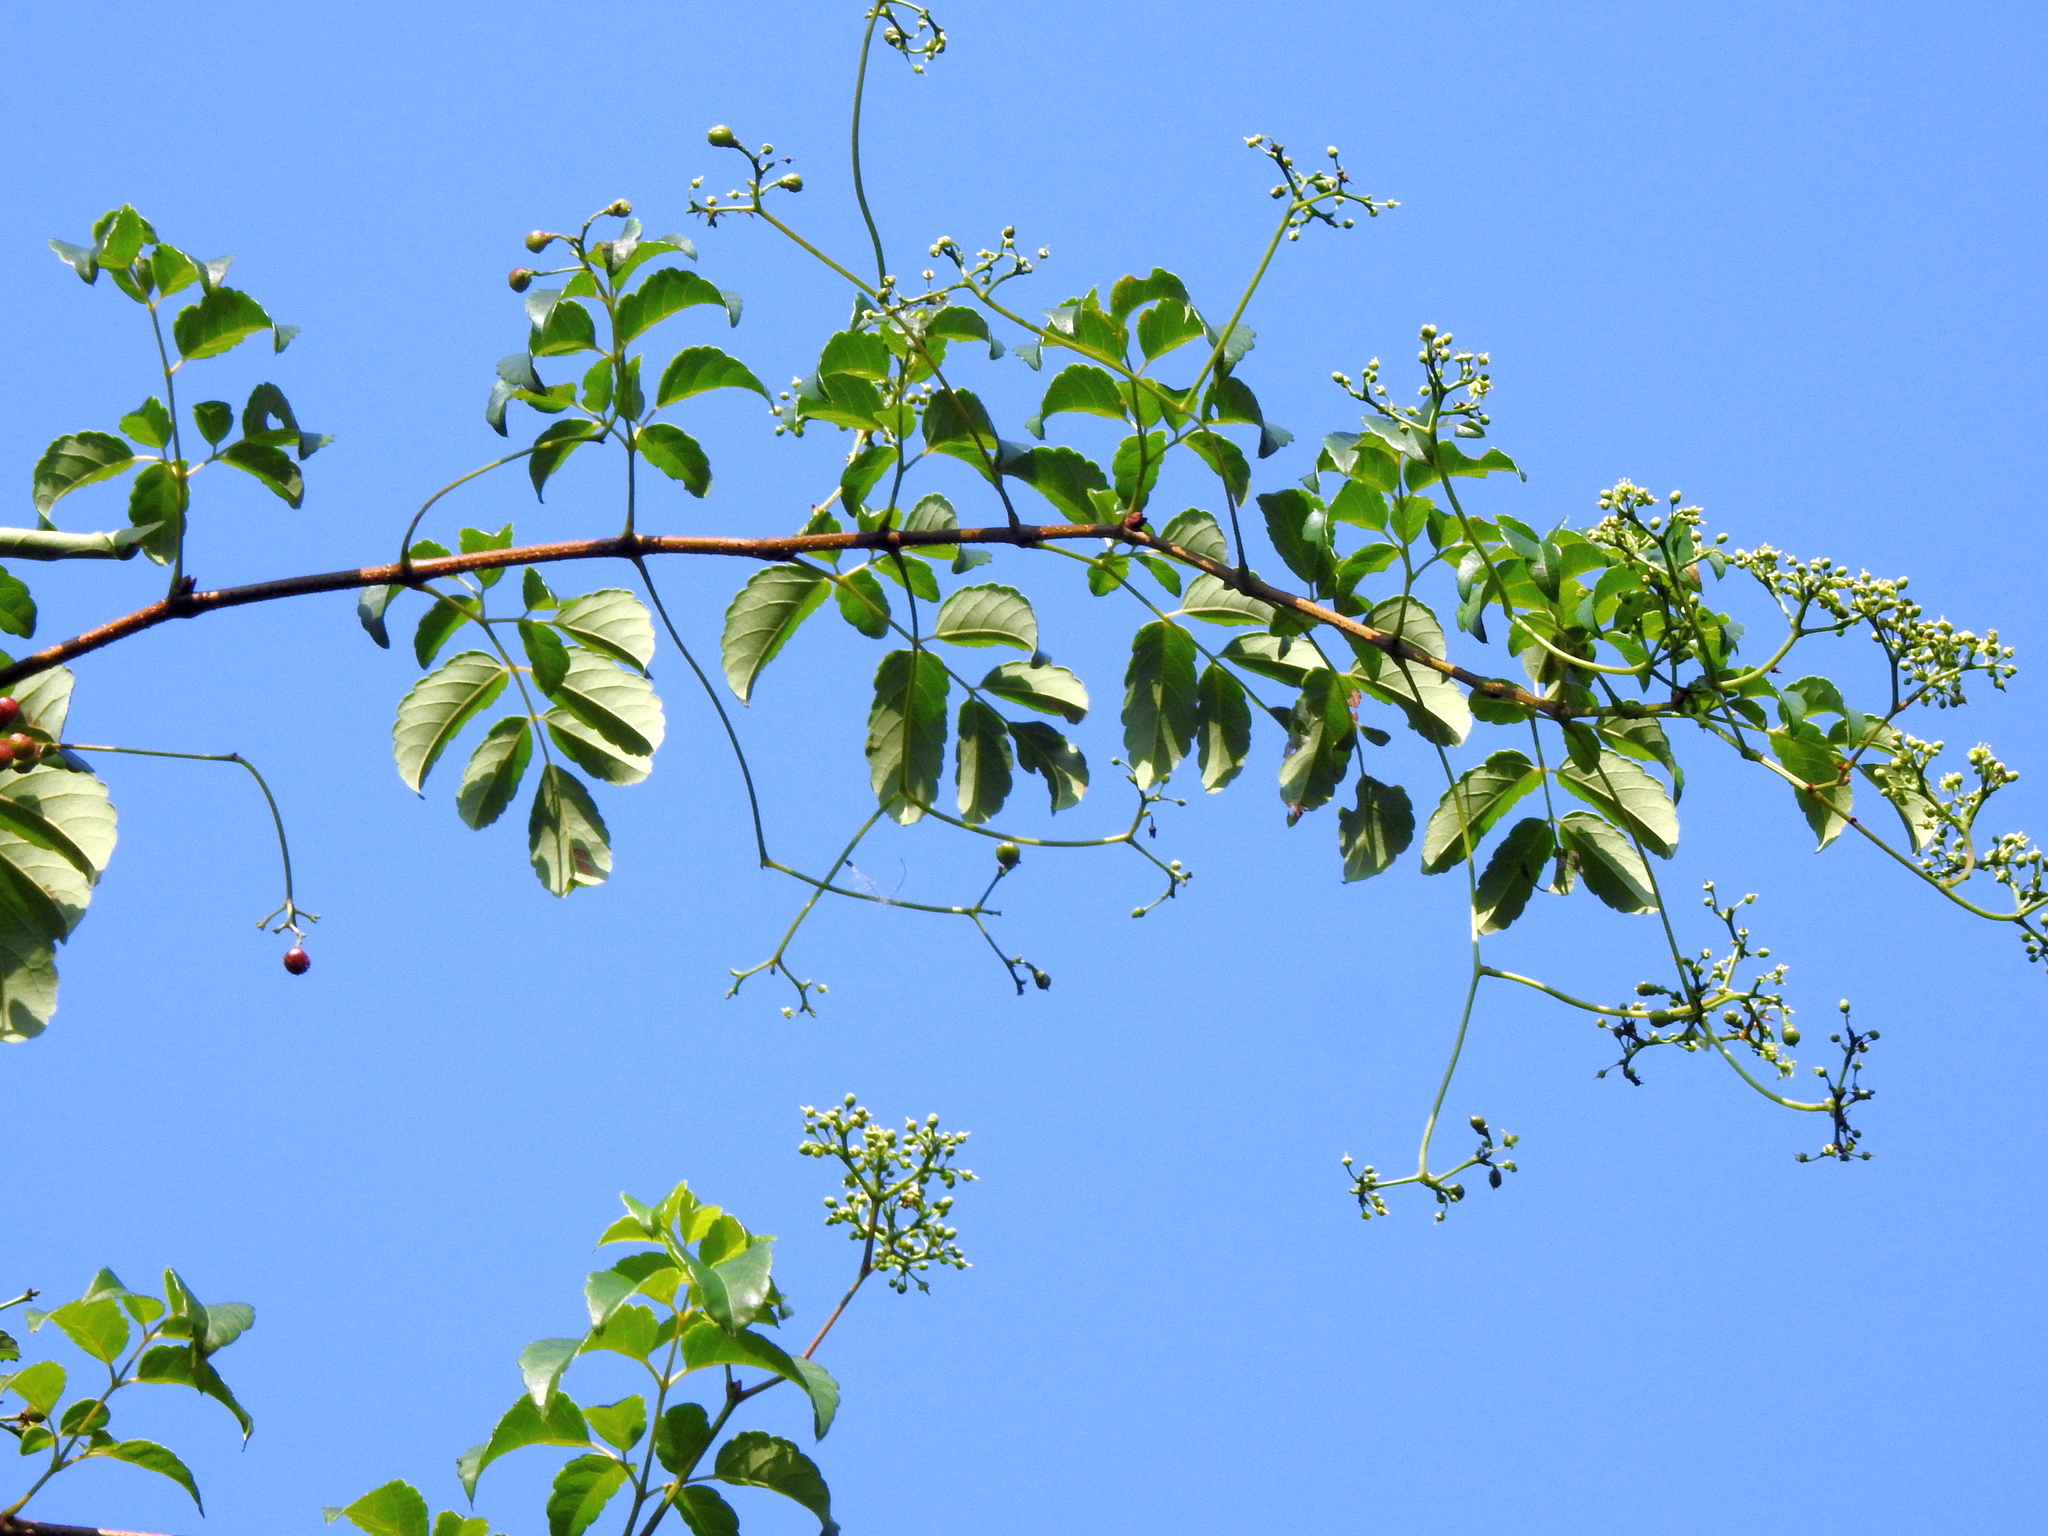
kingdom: Plantae
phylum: Tracheophyta
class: Magnoliopsida
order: Vitales
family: Vitaceae
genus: Nekemias
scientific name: Nekemias cantoniensis
